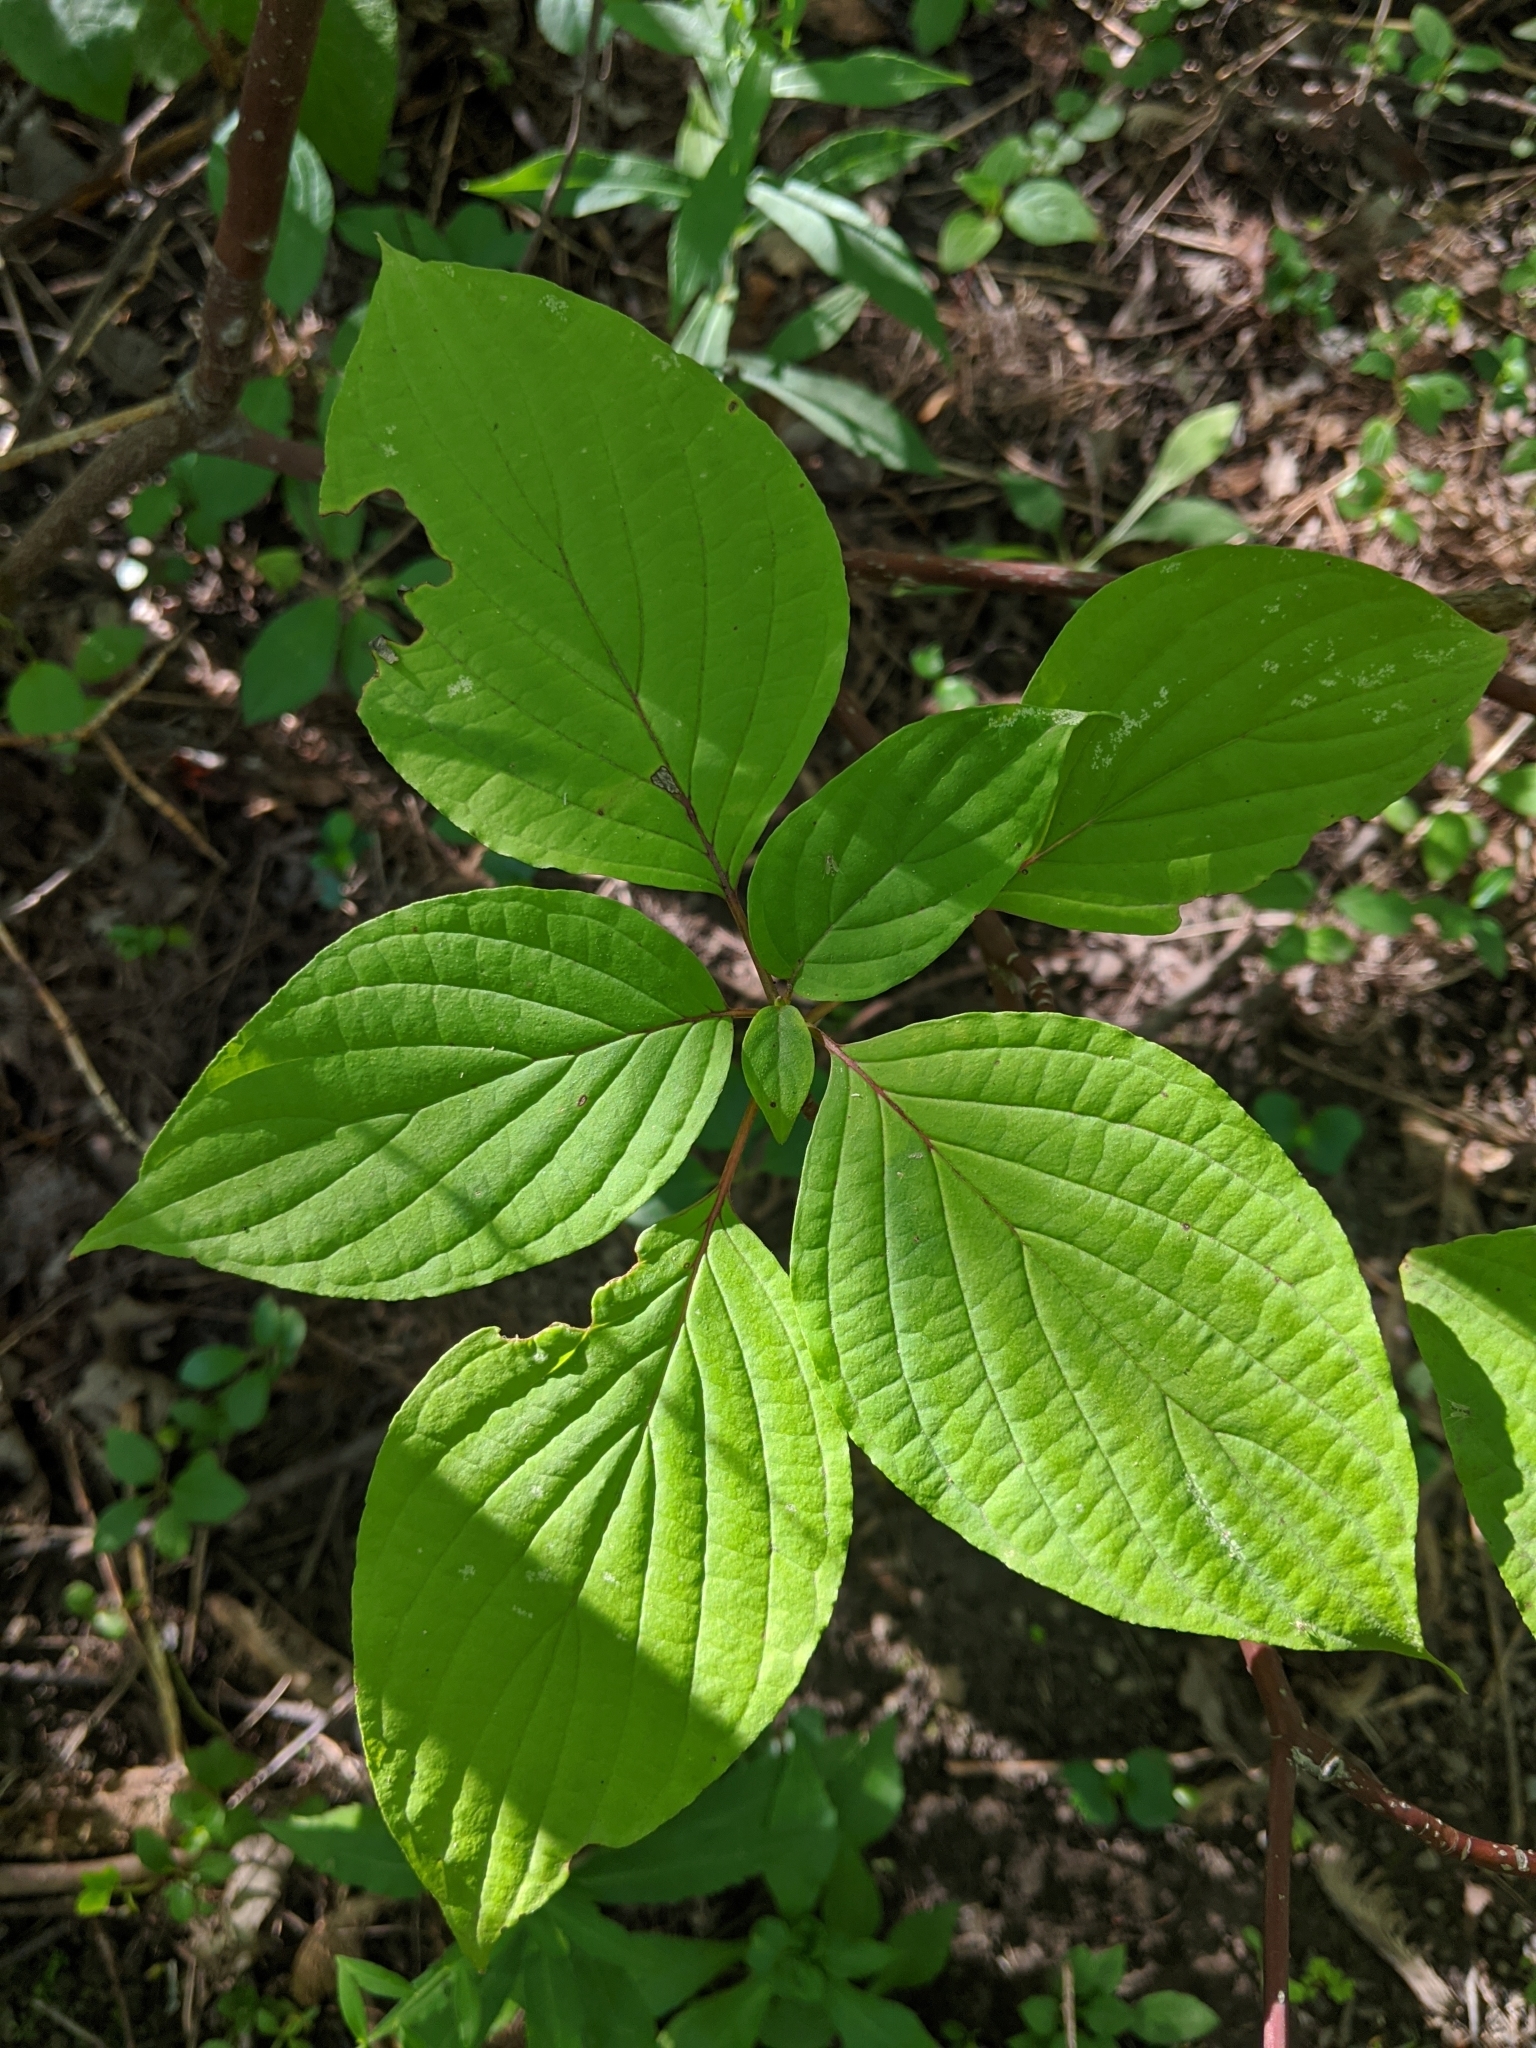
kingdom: Plantae
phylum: Tracheophyta
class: Magnoliopsida
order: Cornales
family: Cornaceae
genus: Cornus
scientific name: Cornus alternifolia
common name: Pagoda dogwood
